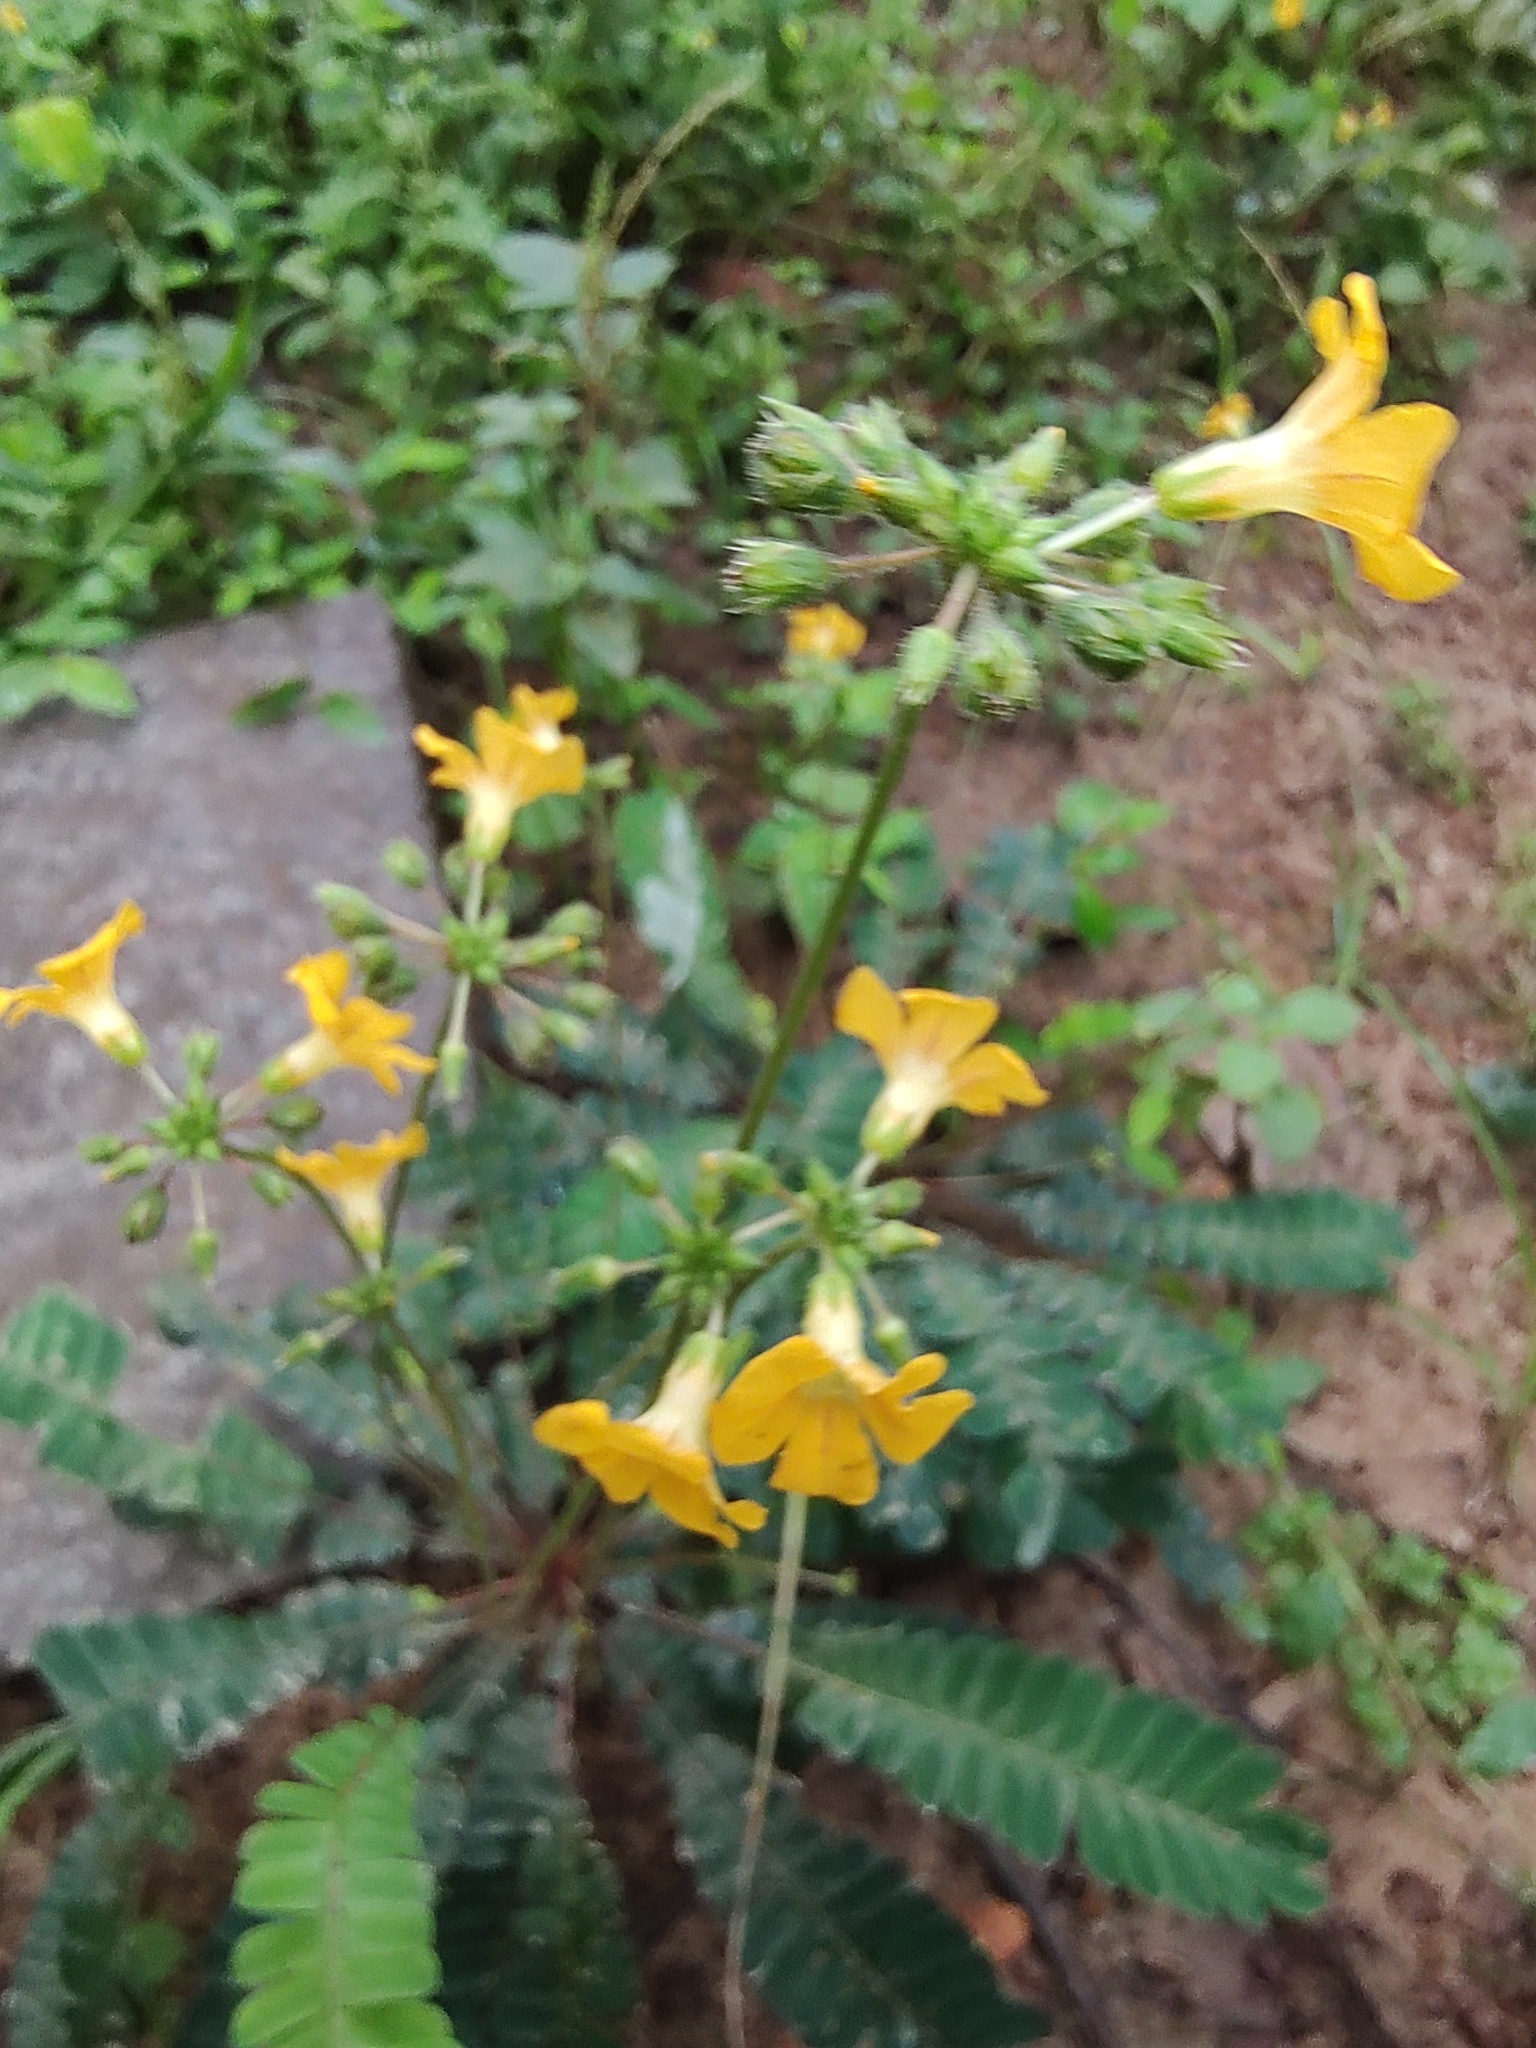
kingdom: Plantae
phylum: Tracheophyta
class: Magnoliopsida
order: Oxalidales
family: Oxalidaceae
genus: Biophytum
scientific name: Biophytum sensitivum
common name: Lifeplant
